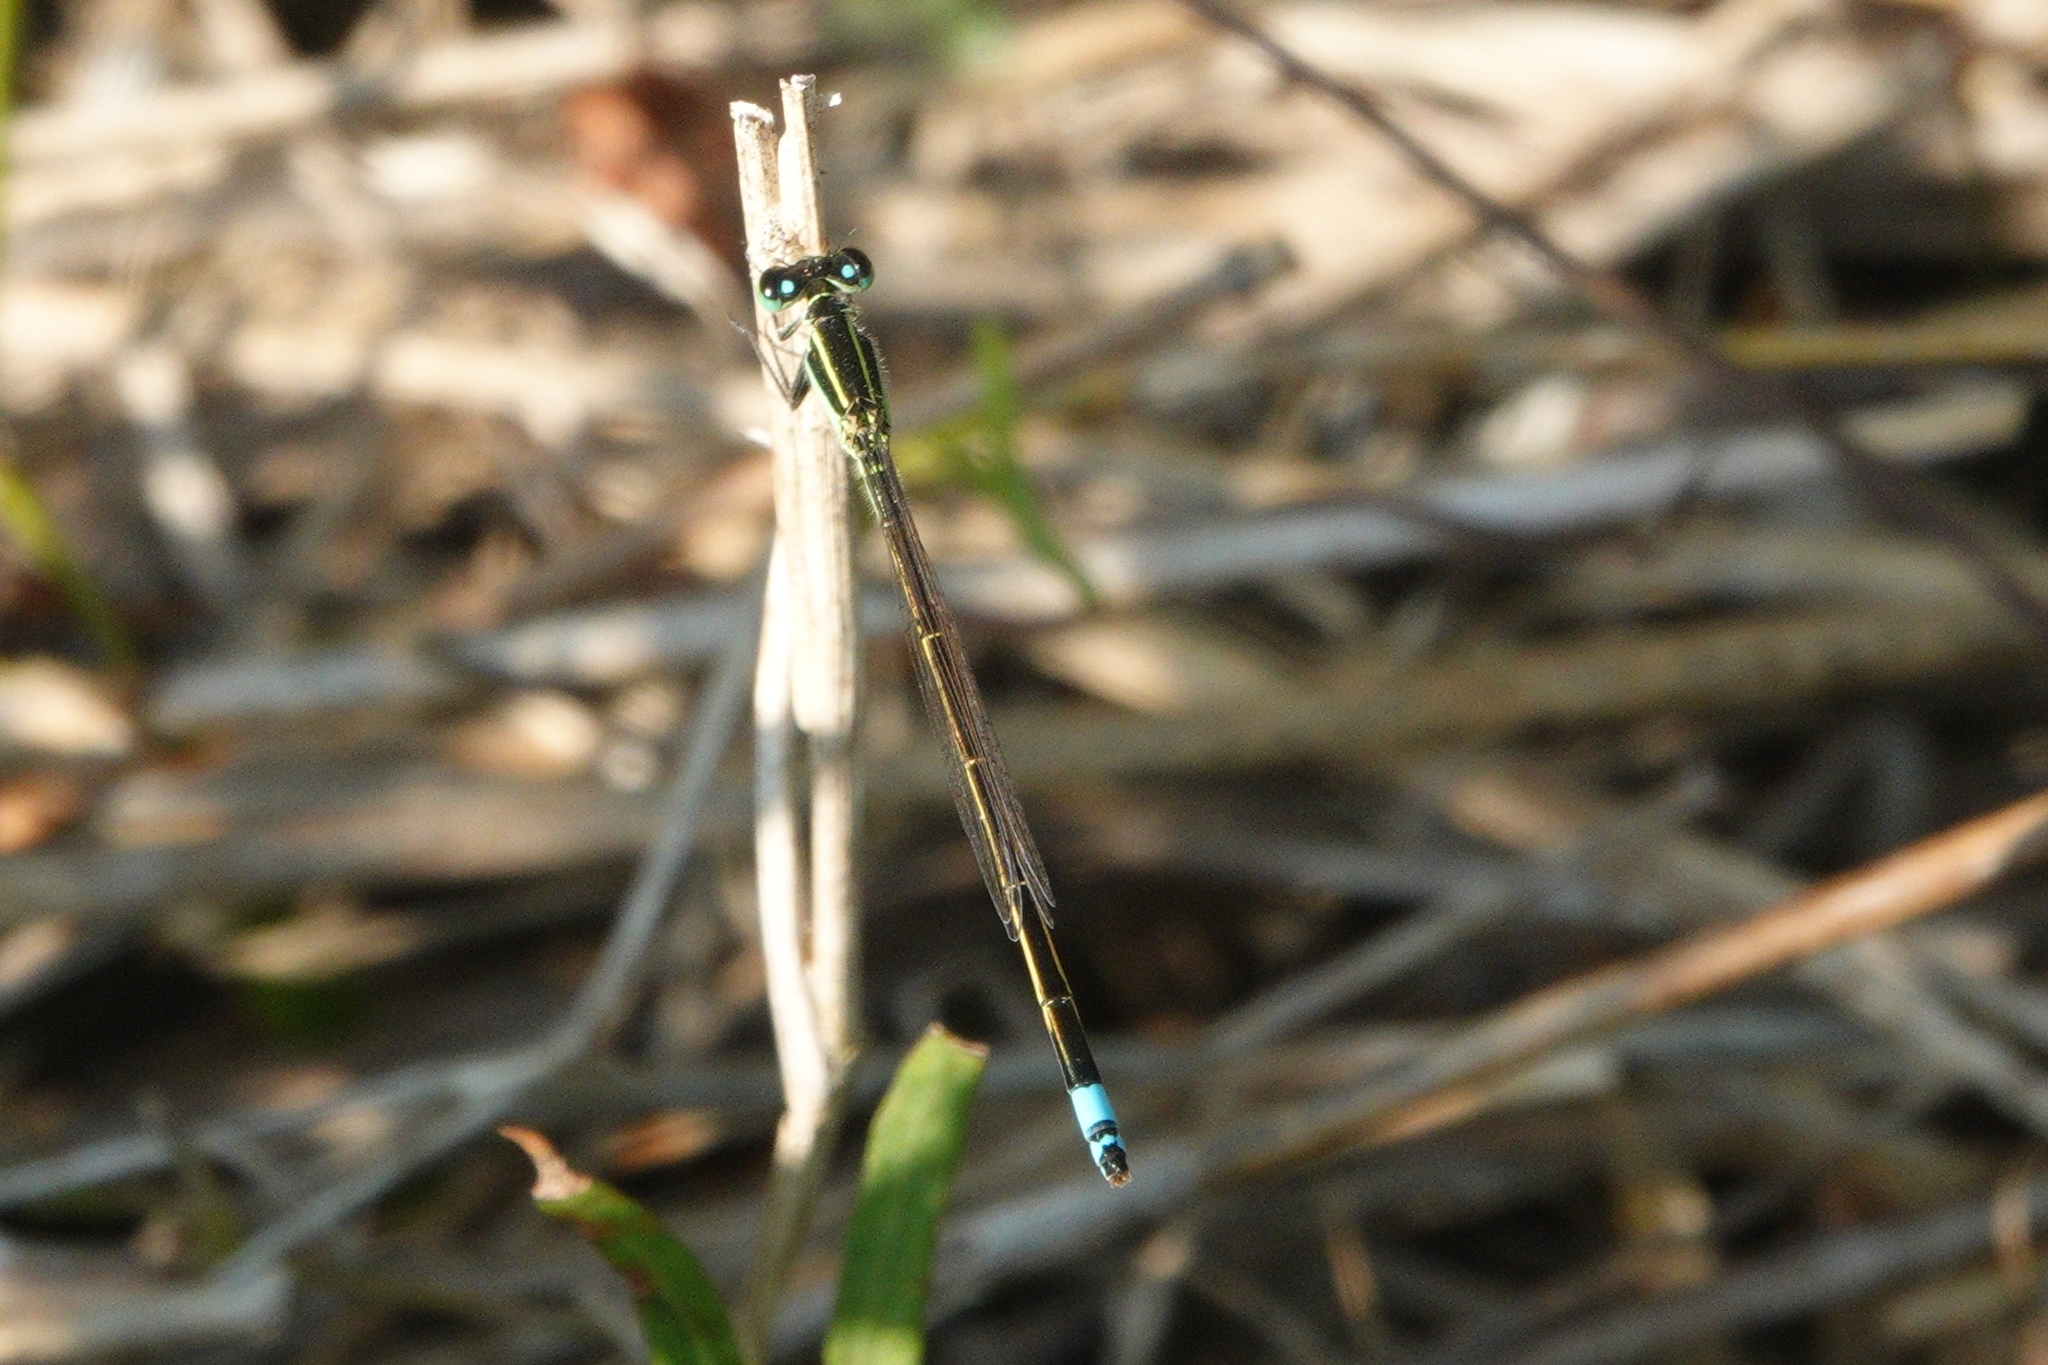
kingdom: Animalia
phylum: Arthropoda
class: Insecta
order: Odonata
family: Coenagrionidae
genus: Ischnura
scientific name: Ischnura ramburii
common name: Rambur's forktail
